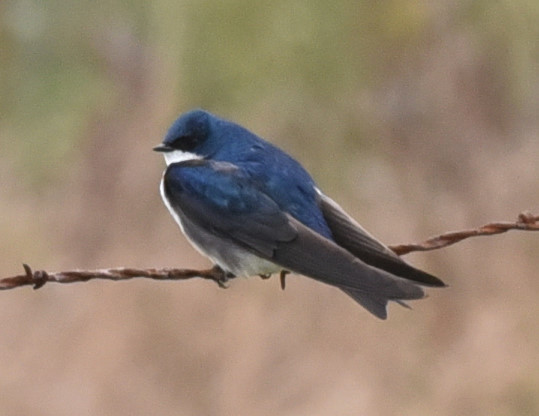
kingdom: Animalia
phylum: Chordata
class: Aves
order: Passeriformes
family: Hirundinidae
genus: Tachycineta
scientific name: Tachycineta bicolor
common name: Tree swallow
